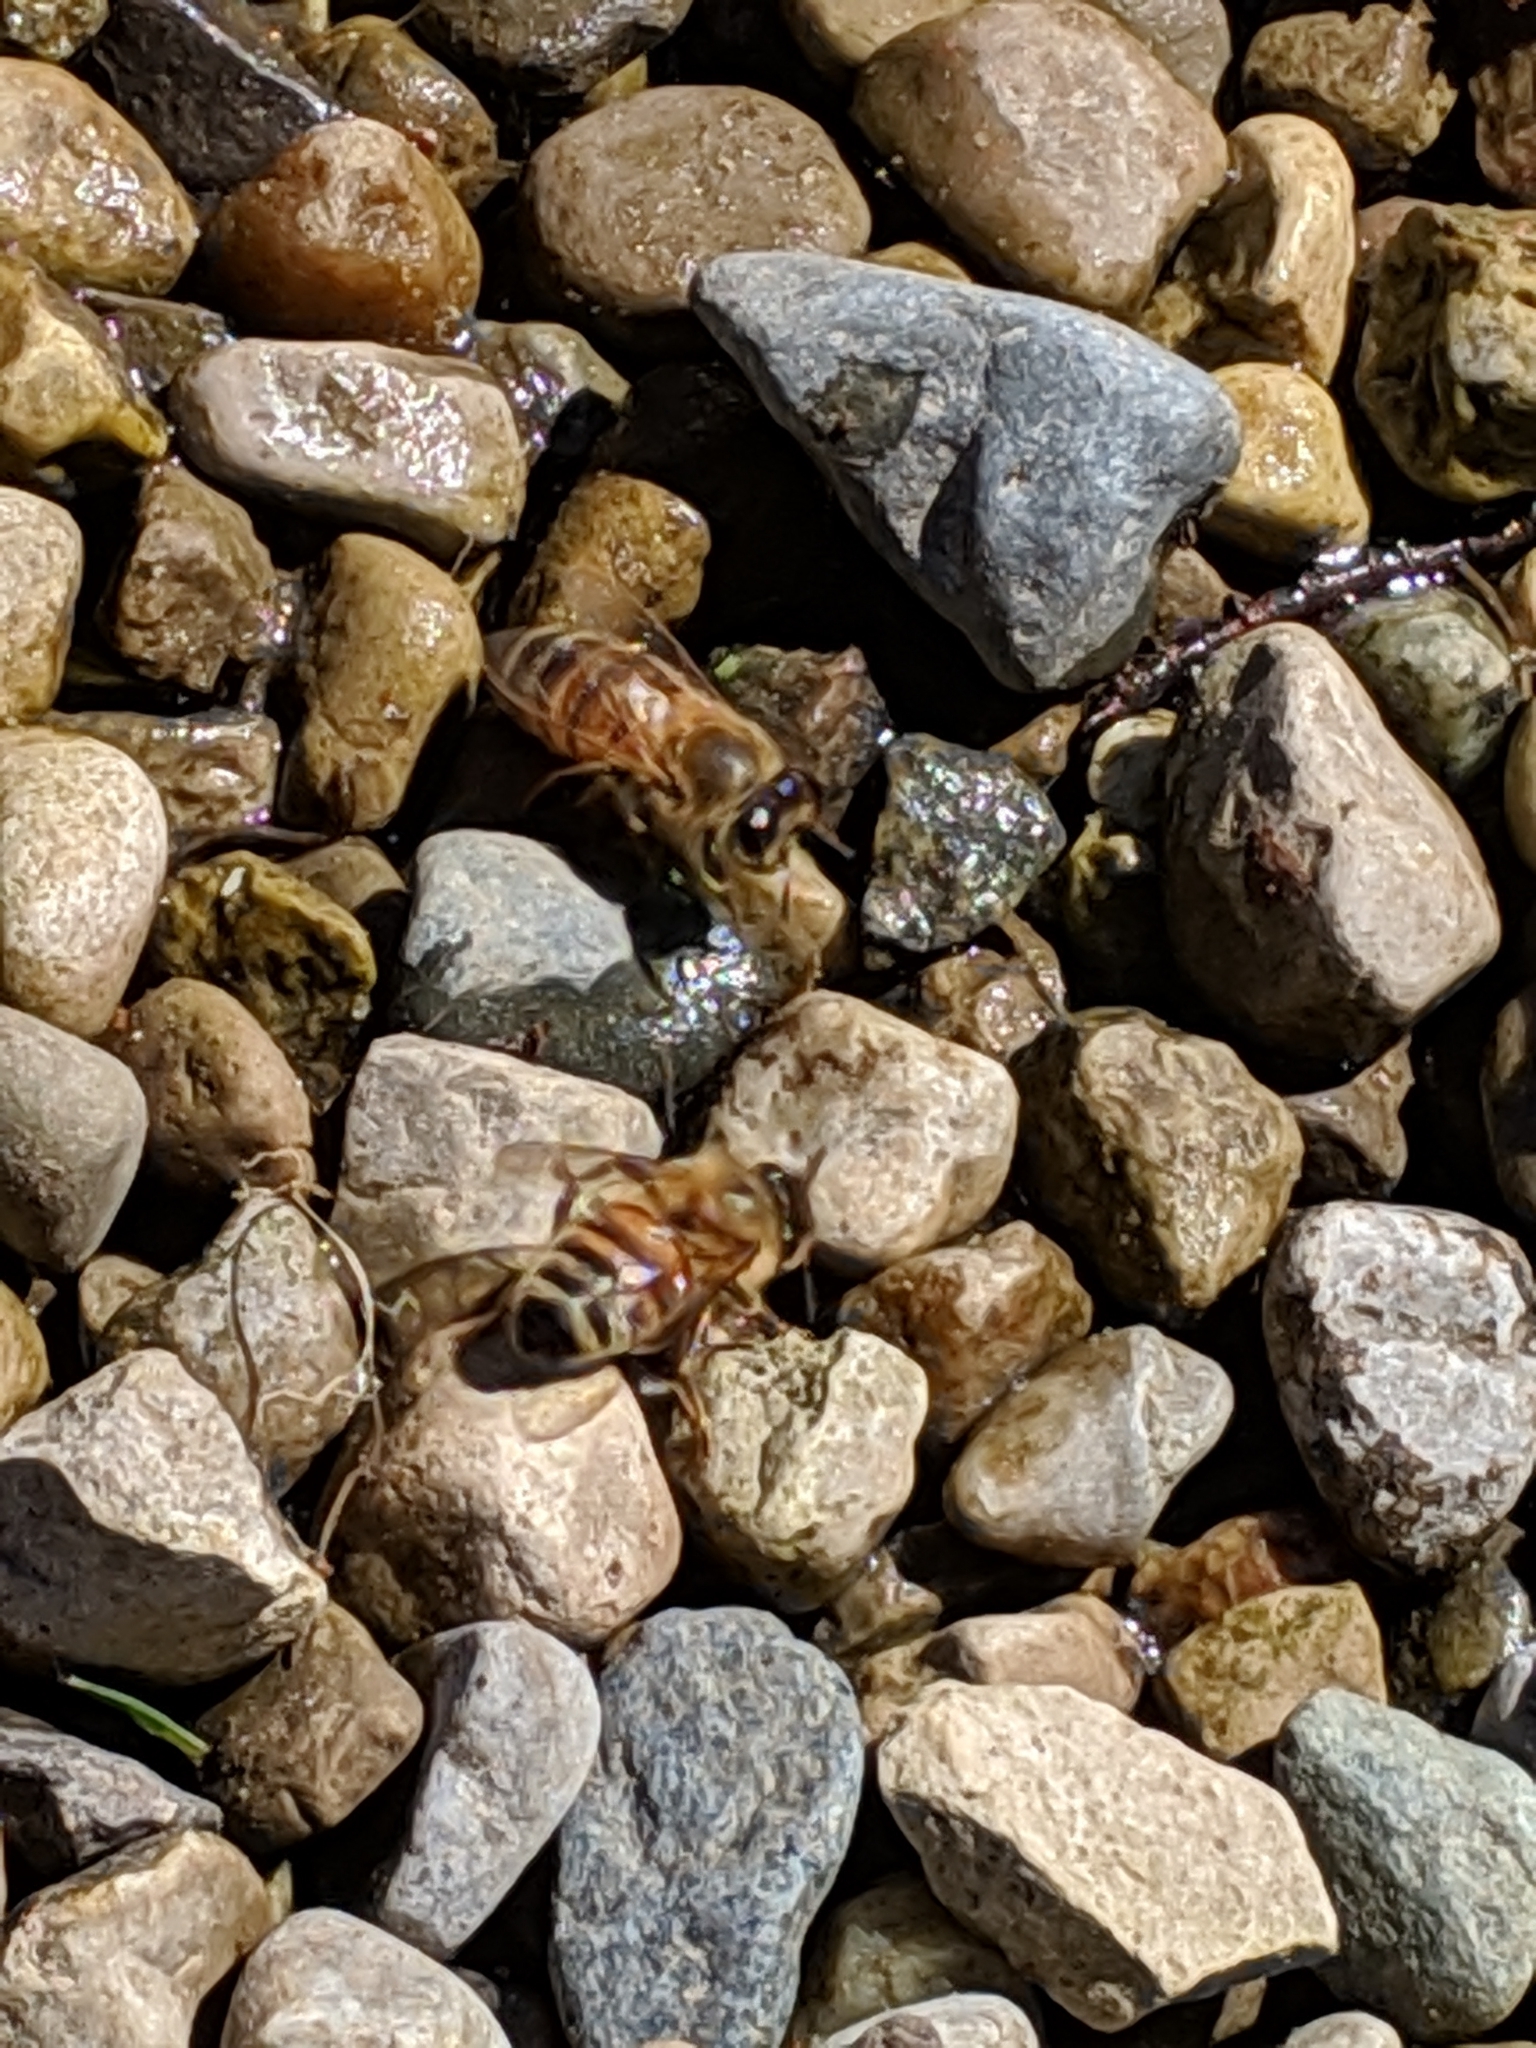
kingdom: Animalia
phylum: Arthropoda
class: Insecta
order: Hymenoptera
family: Apidae
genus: Apis
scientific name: Apis mellifera
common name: Honey bee
